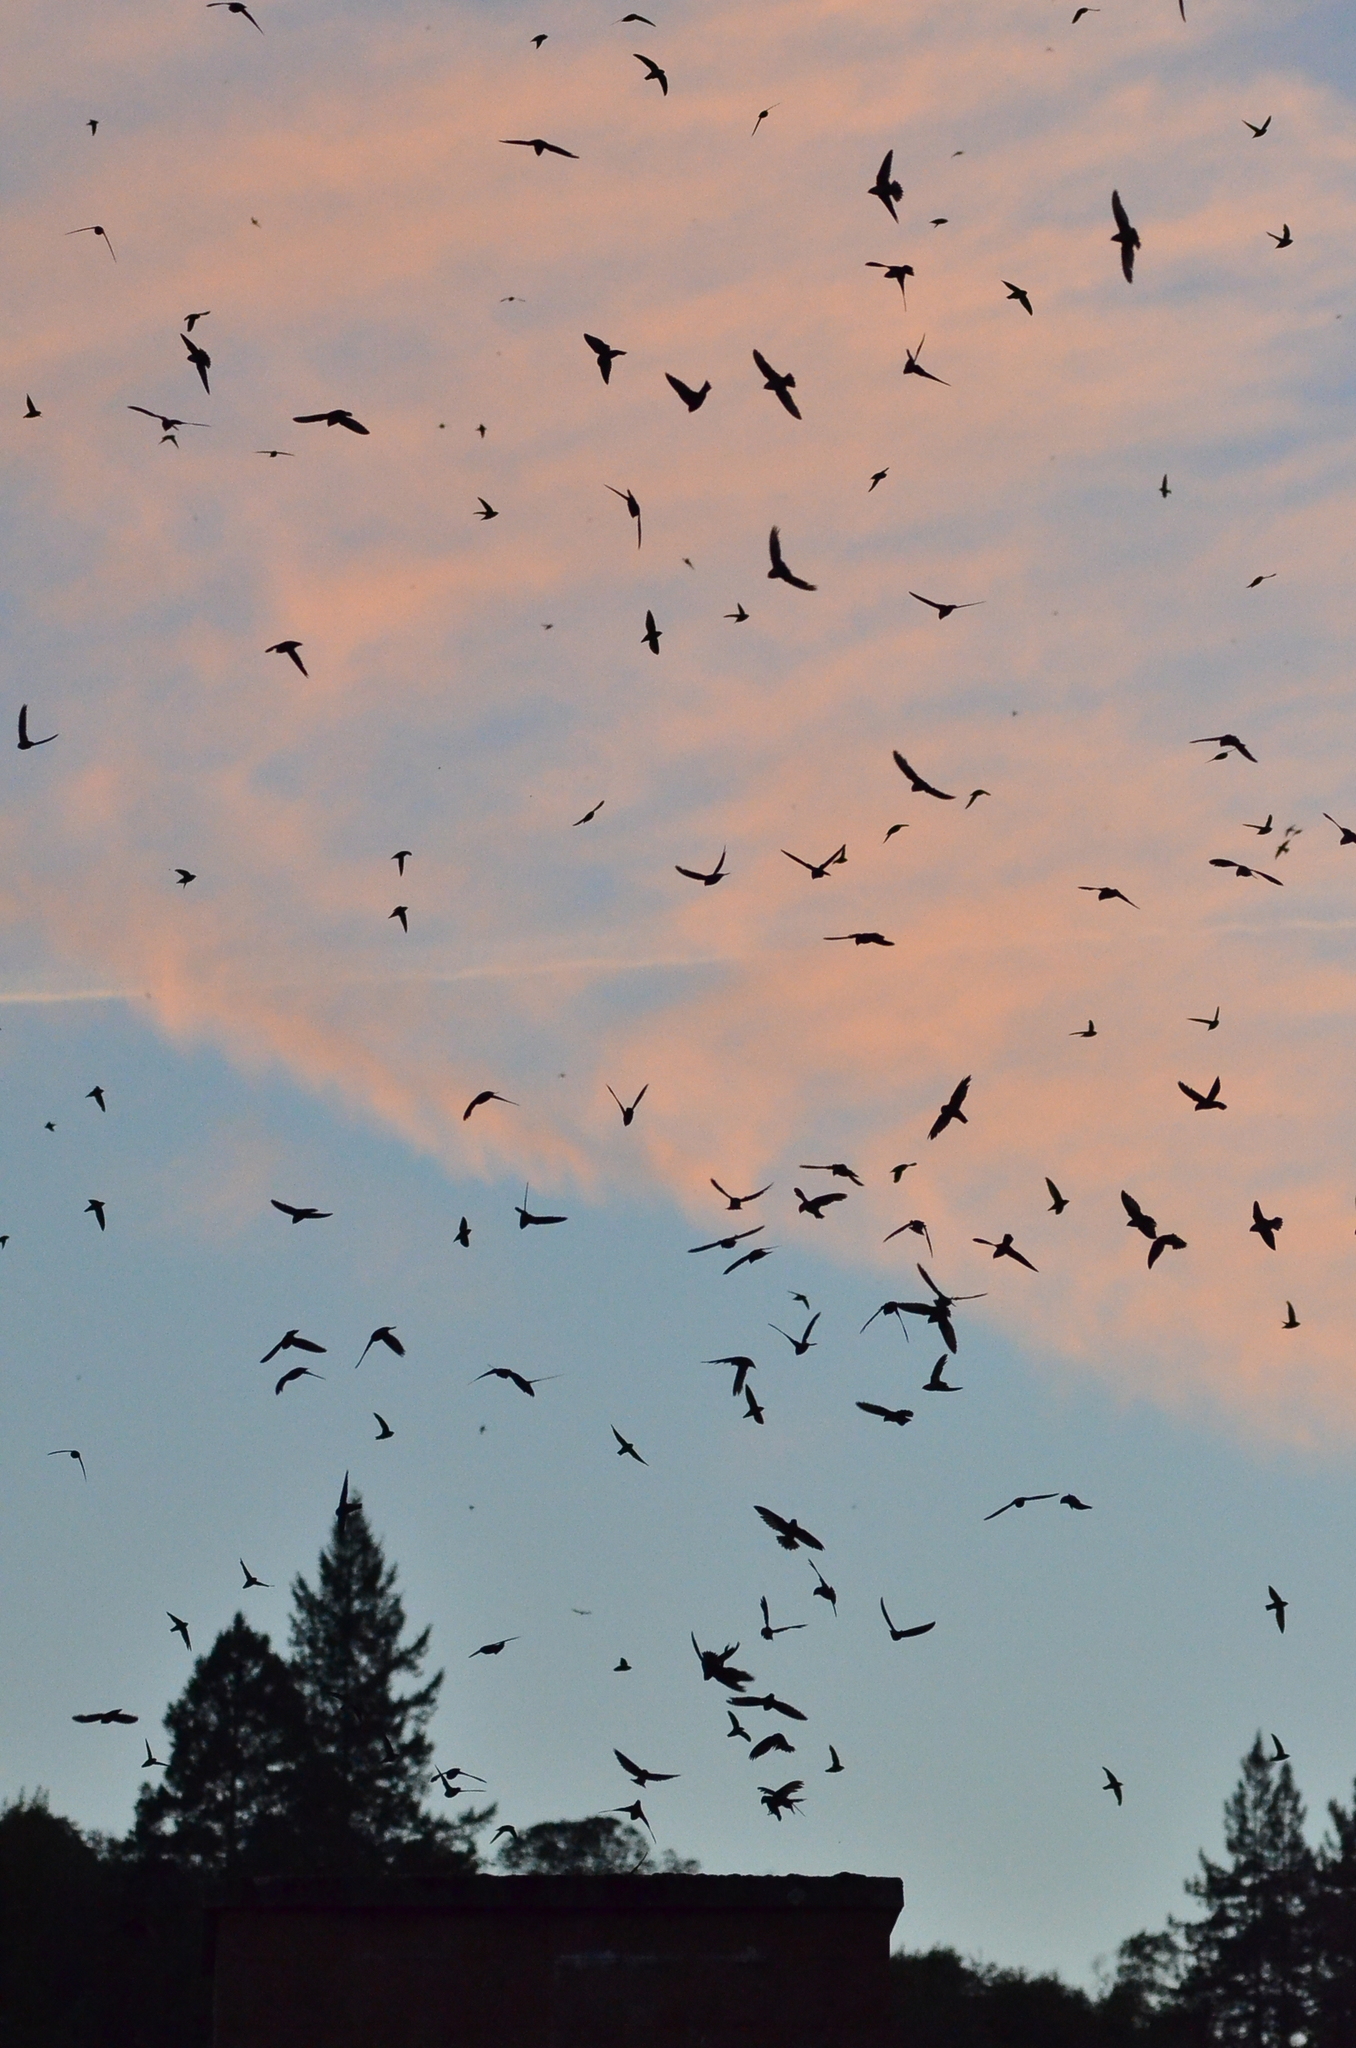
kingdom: Animalia
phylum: Chordata
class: Aves
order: Apodiformes
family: Apodidae
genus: Chaetura
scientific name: Chaetura vauxi
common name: Vaux's swift
